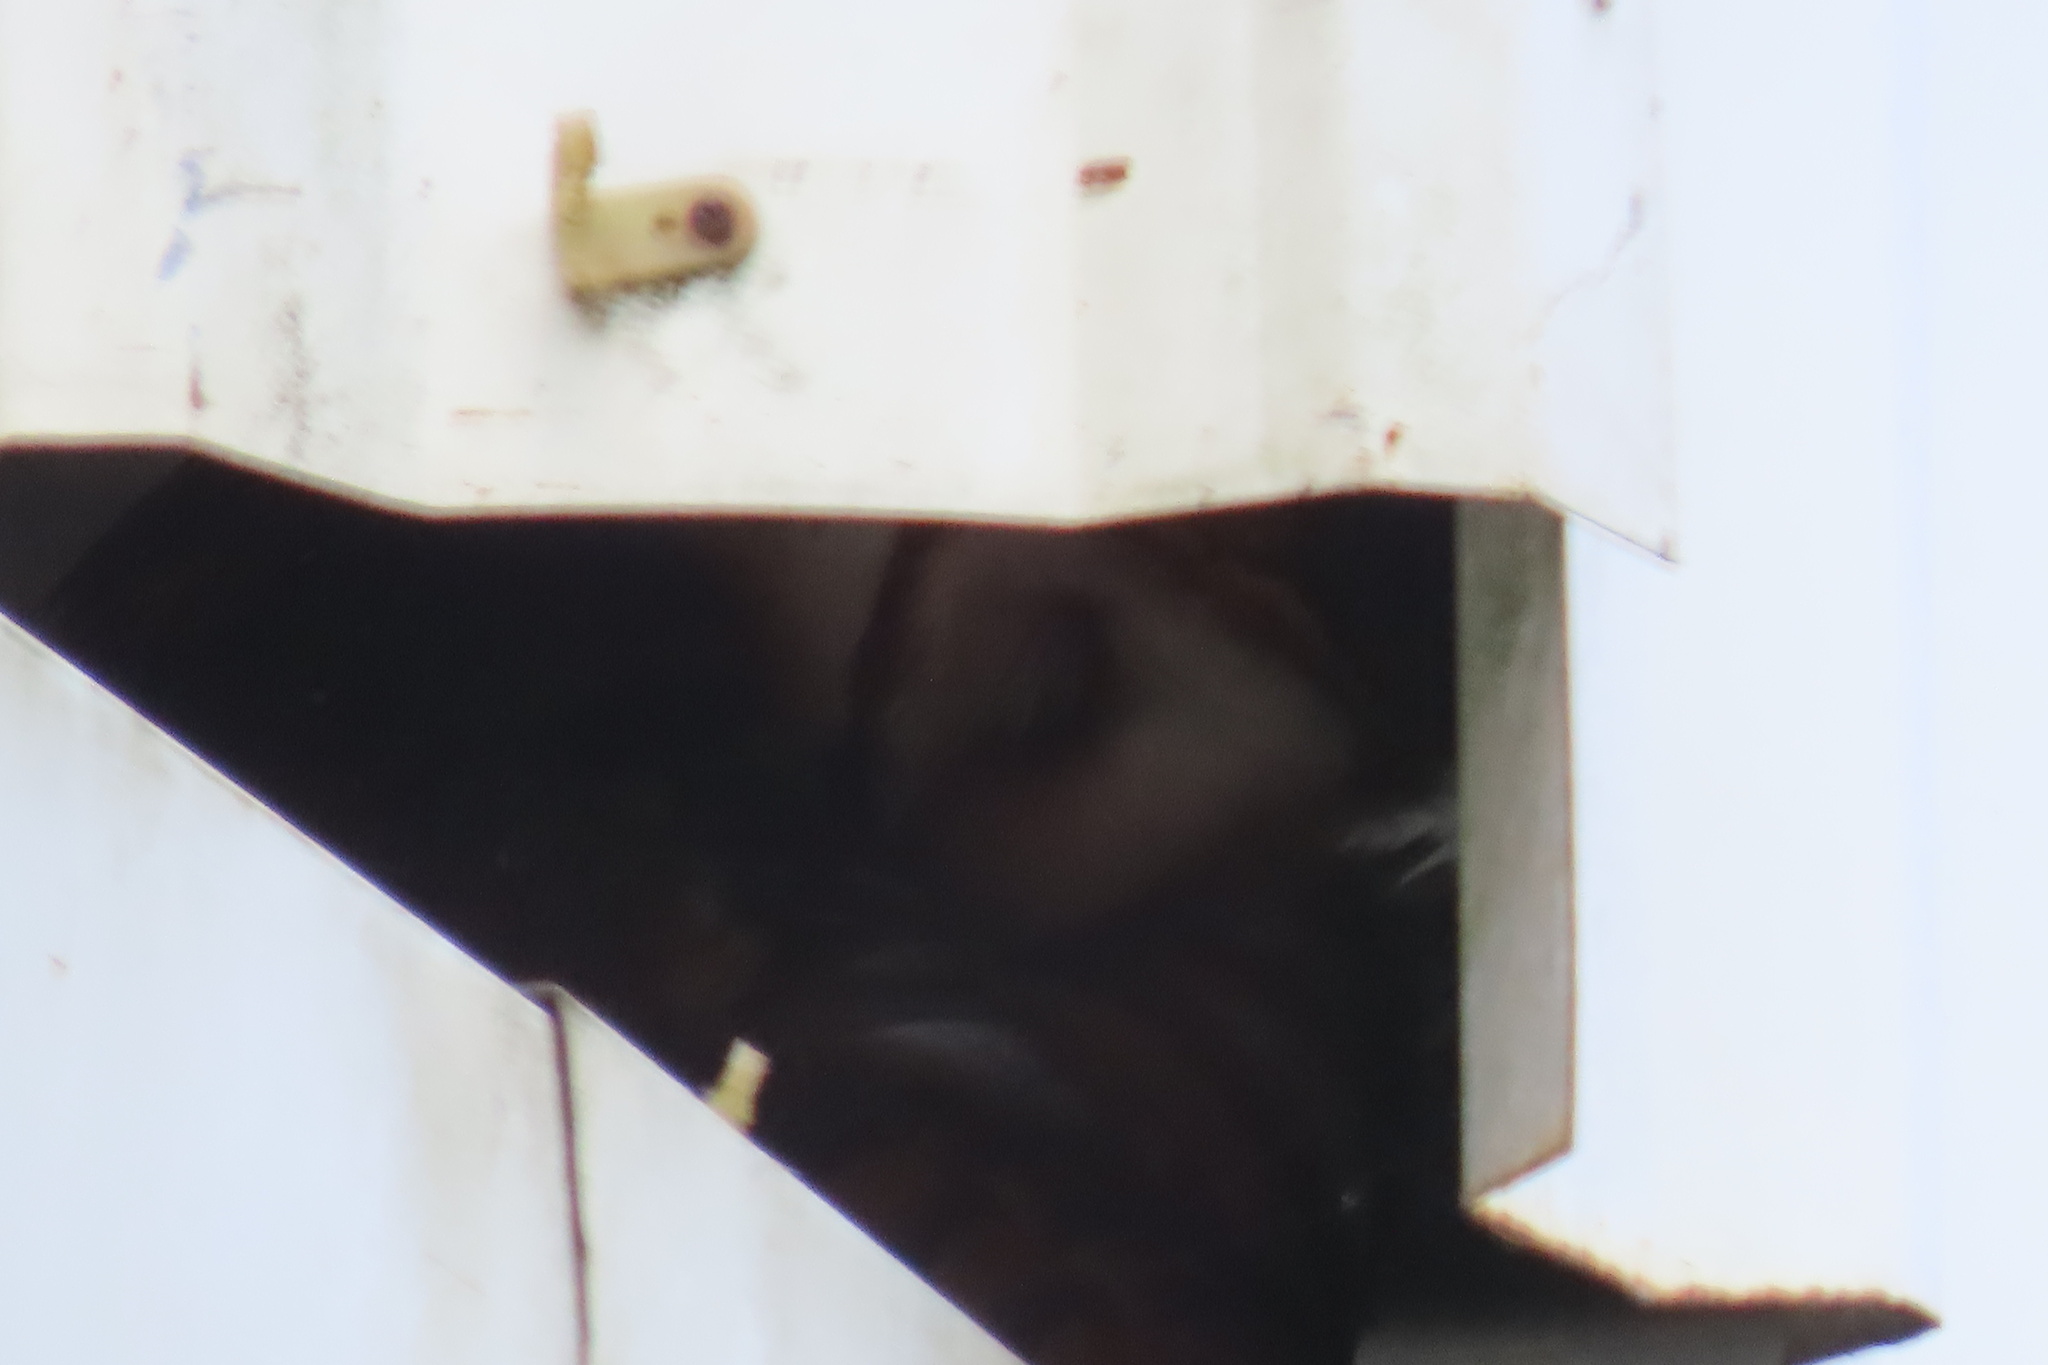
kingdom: Animalia
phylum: Chordata
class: Aves
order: Strigiformes
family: Tytonidae
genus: Tyto
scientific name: Tyto alba
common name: Barn owl
